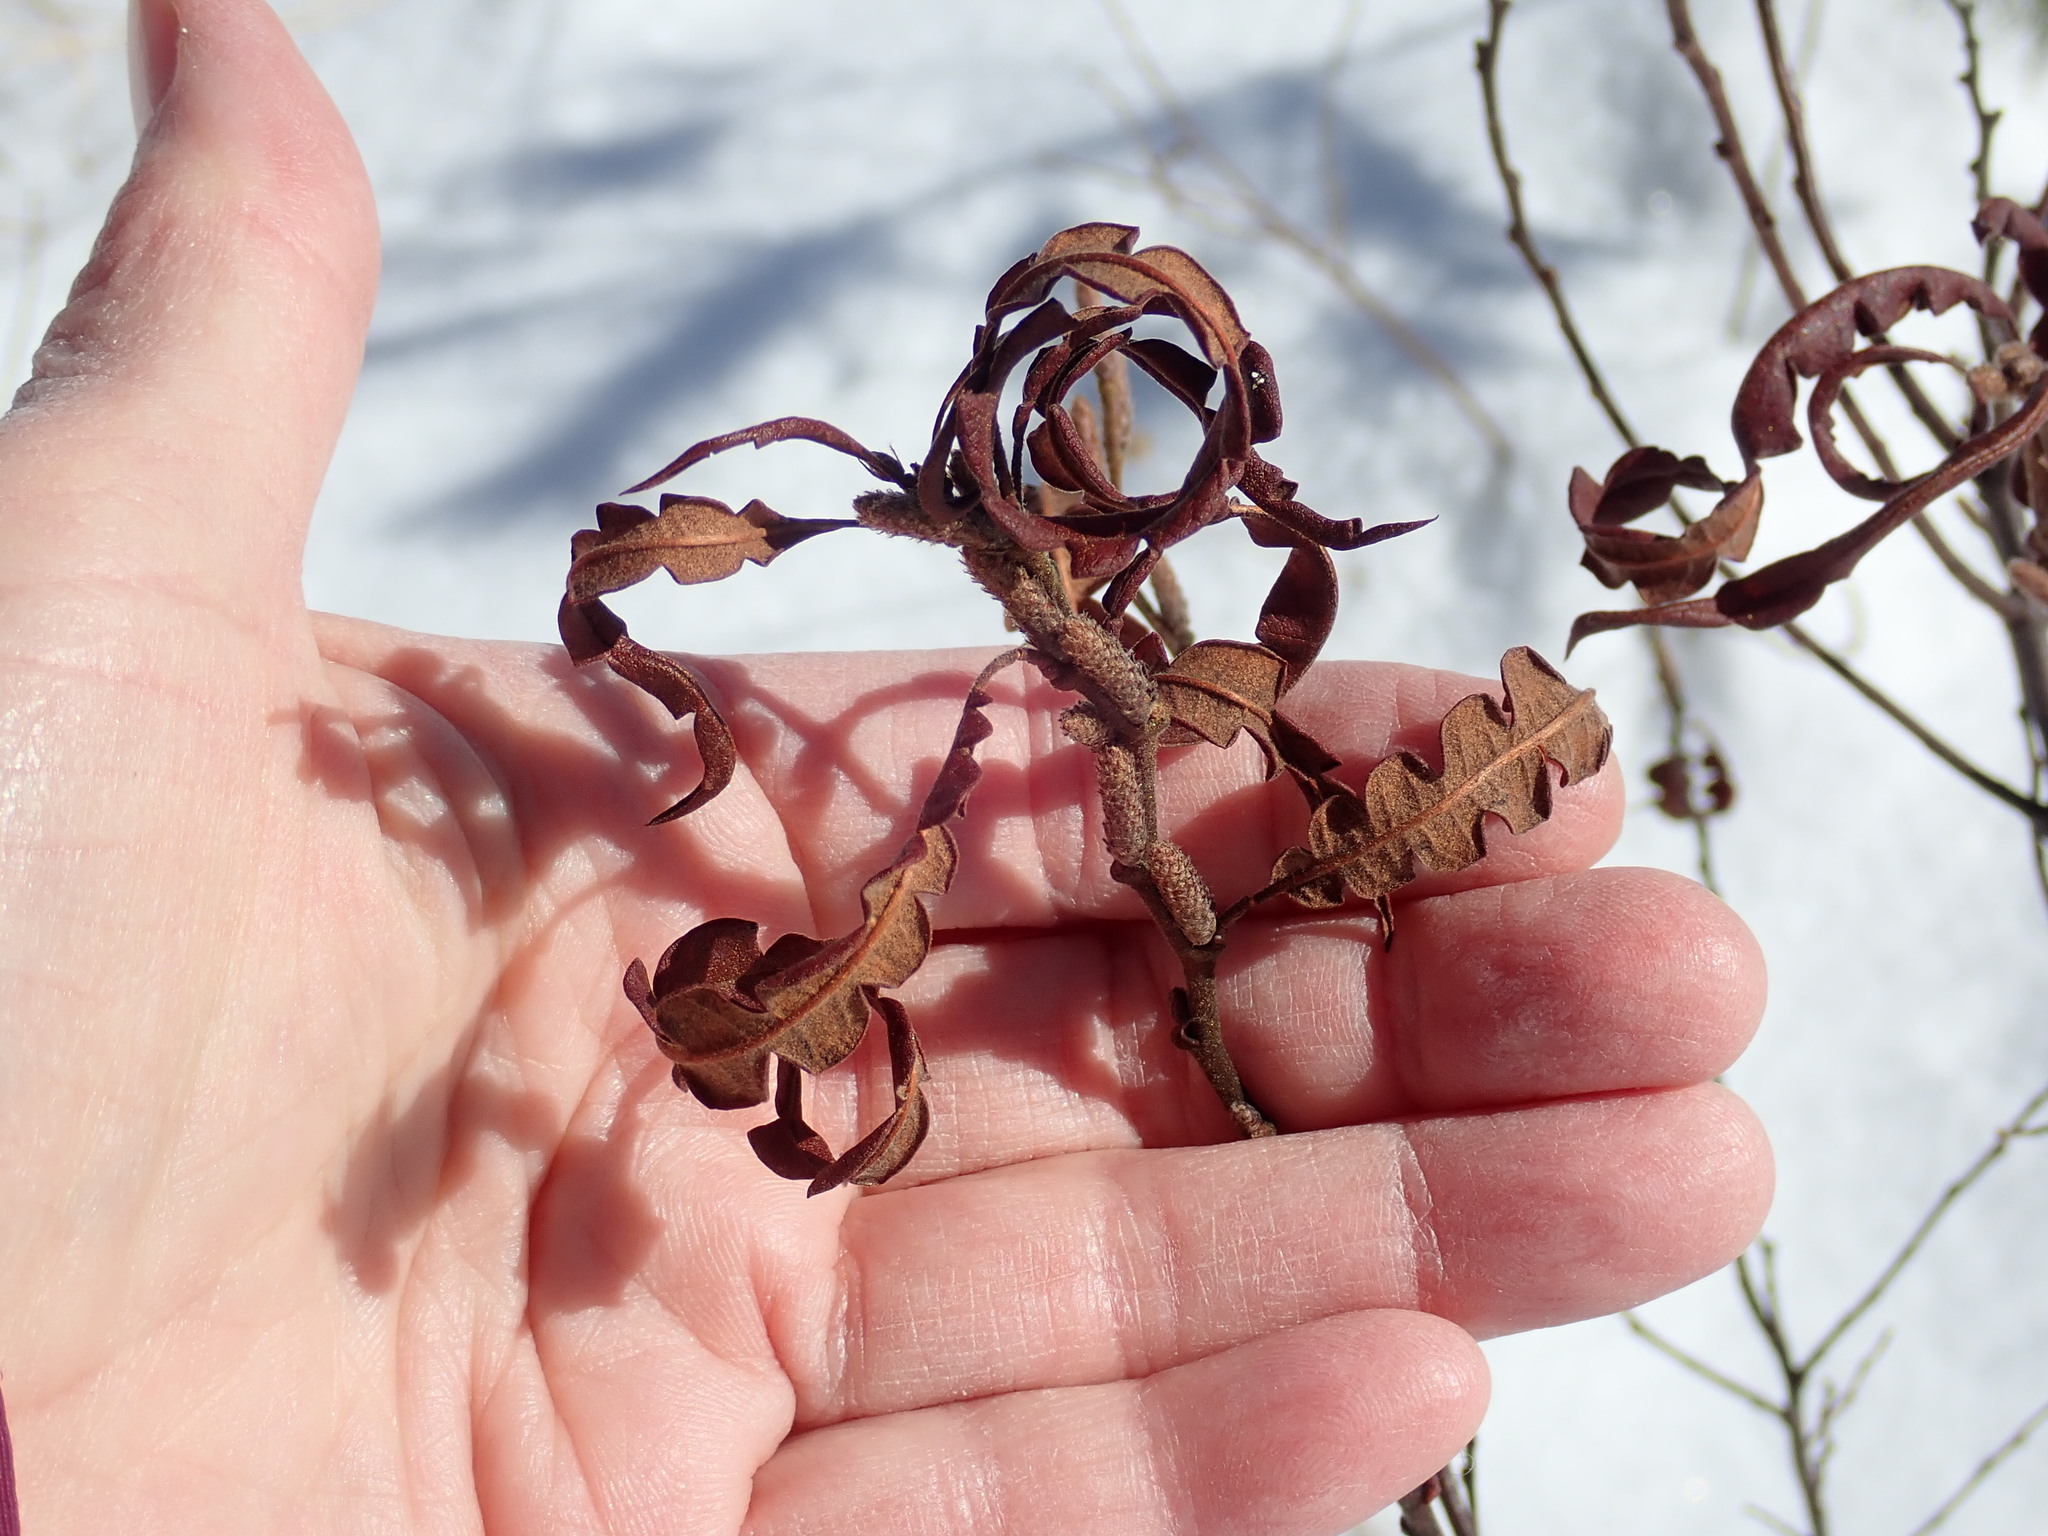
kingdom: Plantae
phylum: Tracheophyta
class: Magnoliopsida
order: Fagales
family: Myricaceae
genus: Comptonia
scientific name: Comptonia peregrina
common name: Sweet-fern
